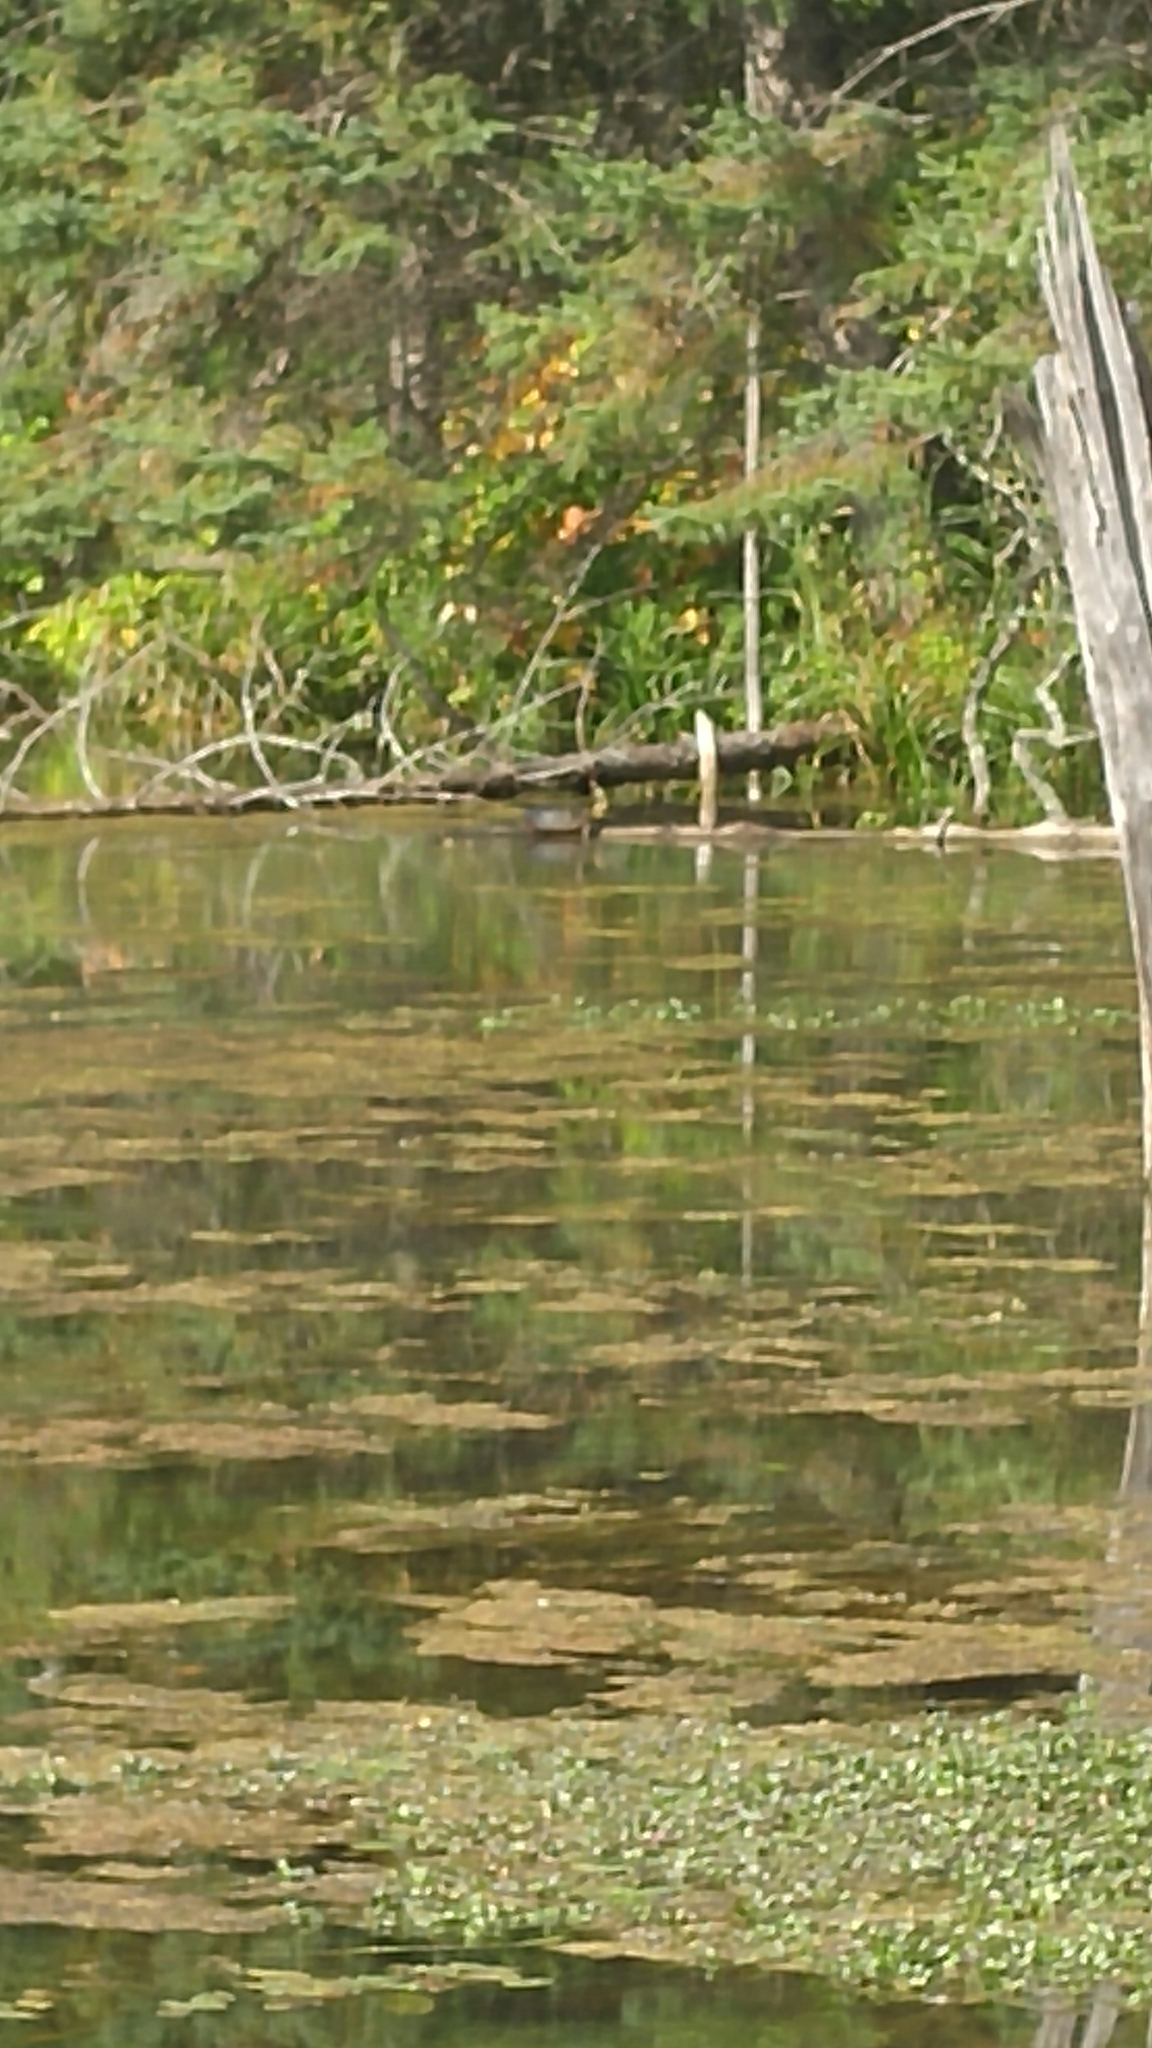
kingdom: Animalia
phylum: Chordata
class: Testudines
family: Emydidae
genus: Chrysemys
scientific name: Chrysemys picta
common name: Painted turtle
